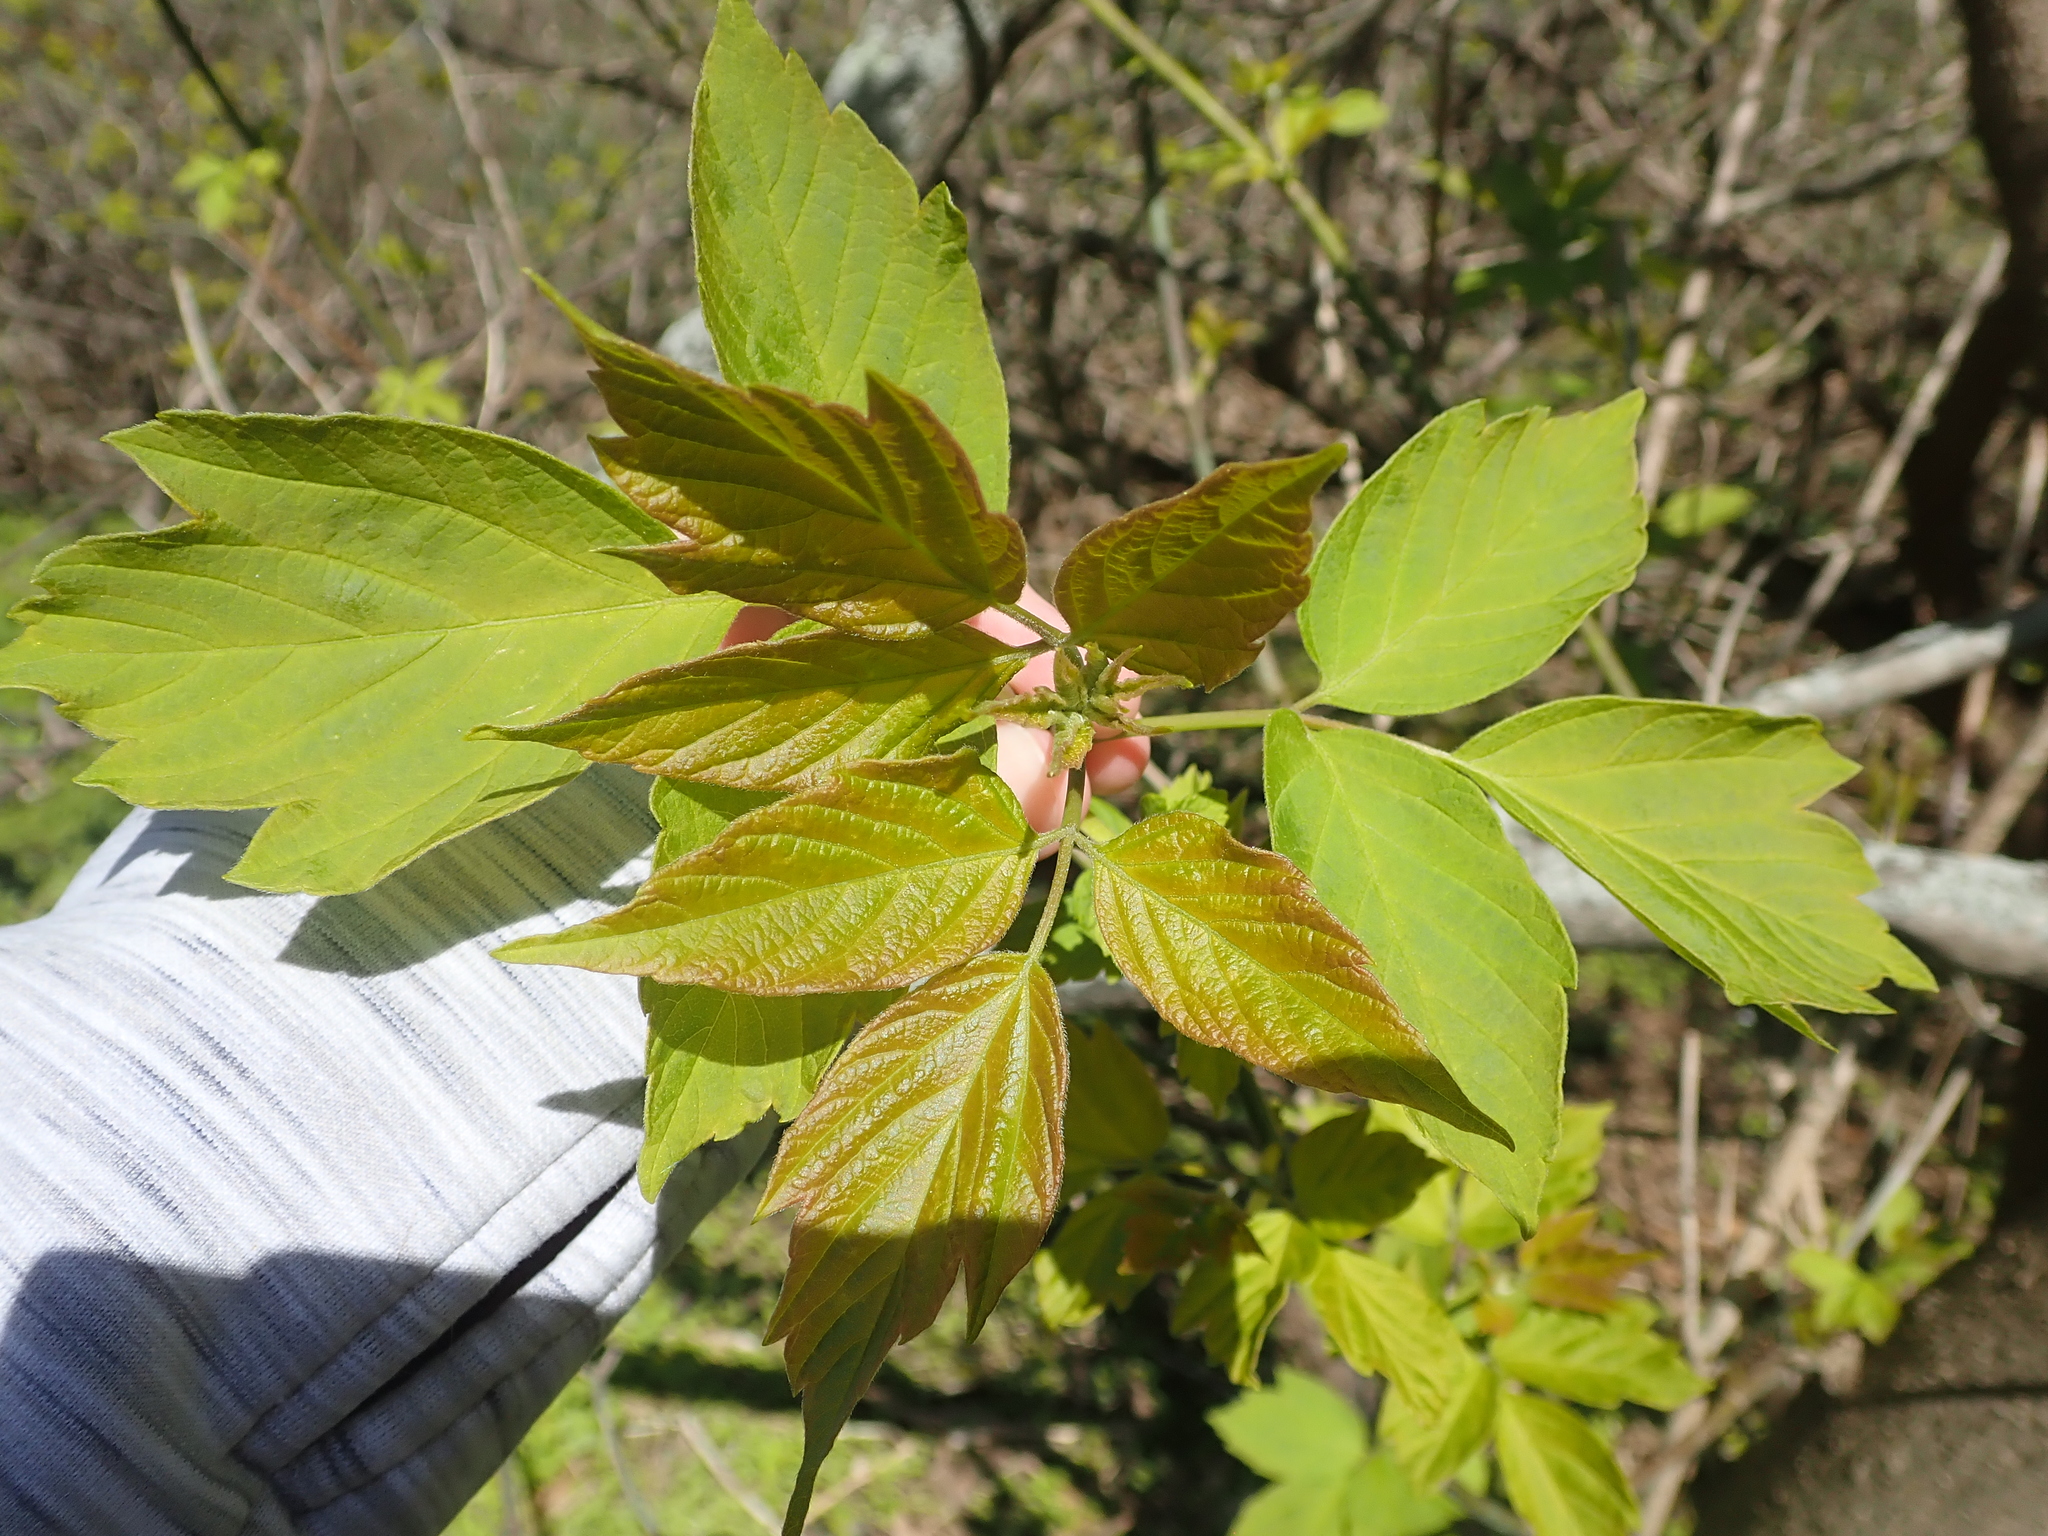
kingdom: Plantae
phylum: Tracheophyta
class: Magnoliopsida
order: Sapindales
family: Sapindaceae
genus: Acer
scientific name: Acer negundo
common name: Ashleaf maple
